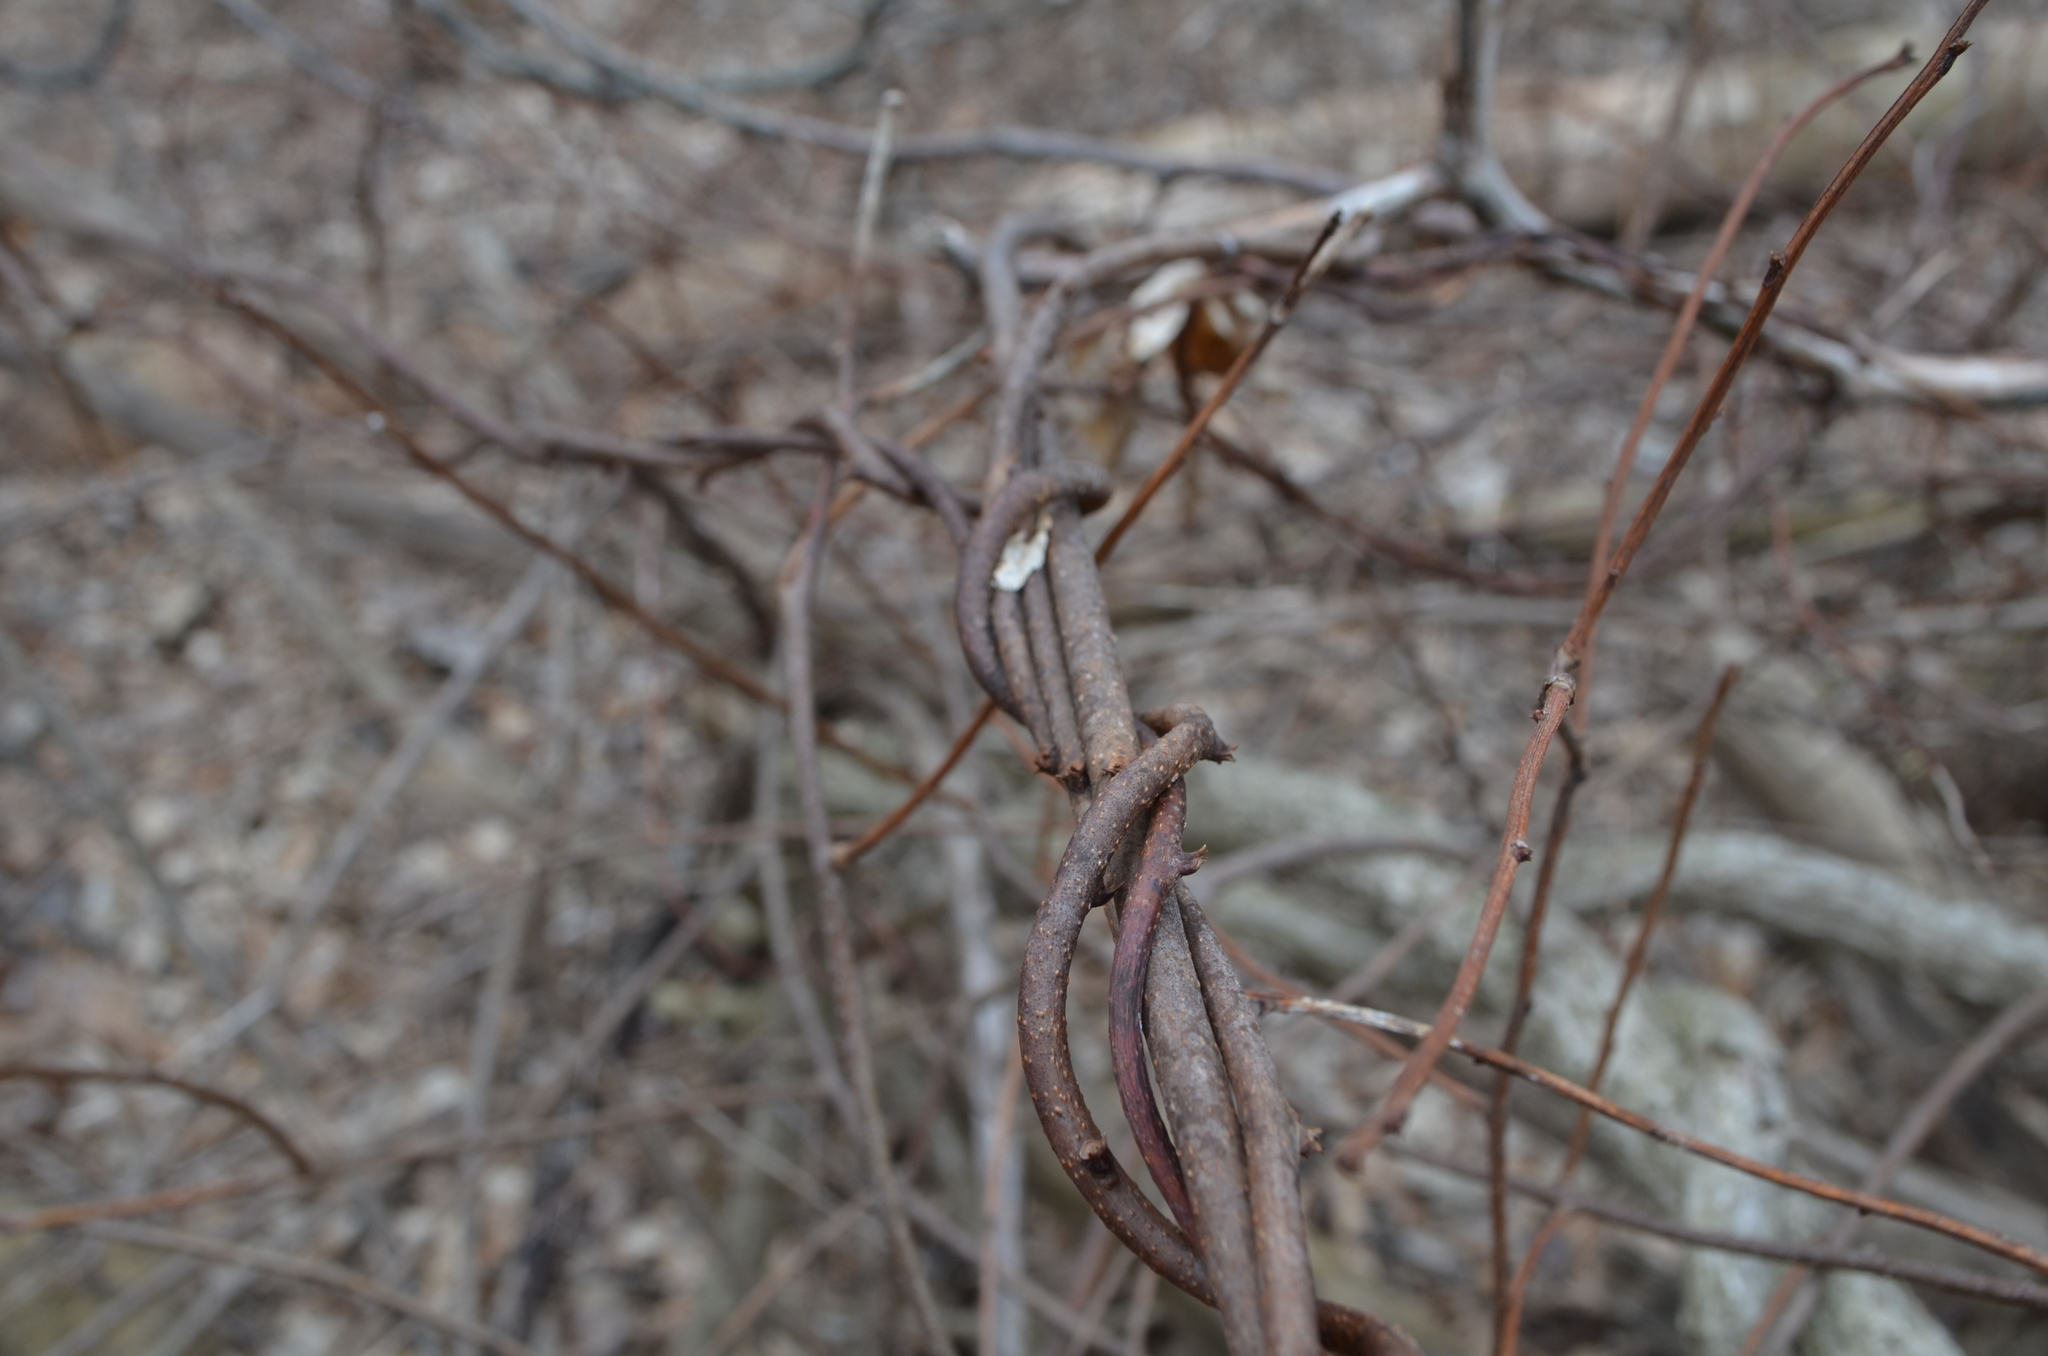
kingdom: Plantae
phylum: Tracheophyta
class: Magnoliopsida
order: Celastrales
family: Celastraceae
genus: Celastrus
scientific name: Celastrus orbiculatus
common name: Oriental bittersweet
